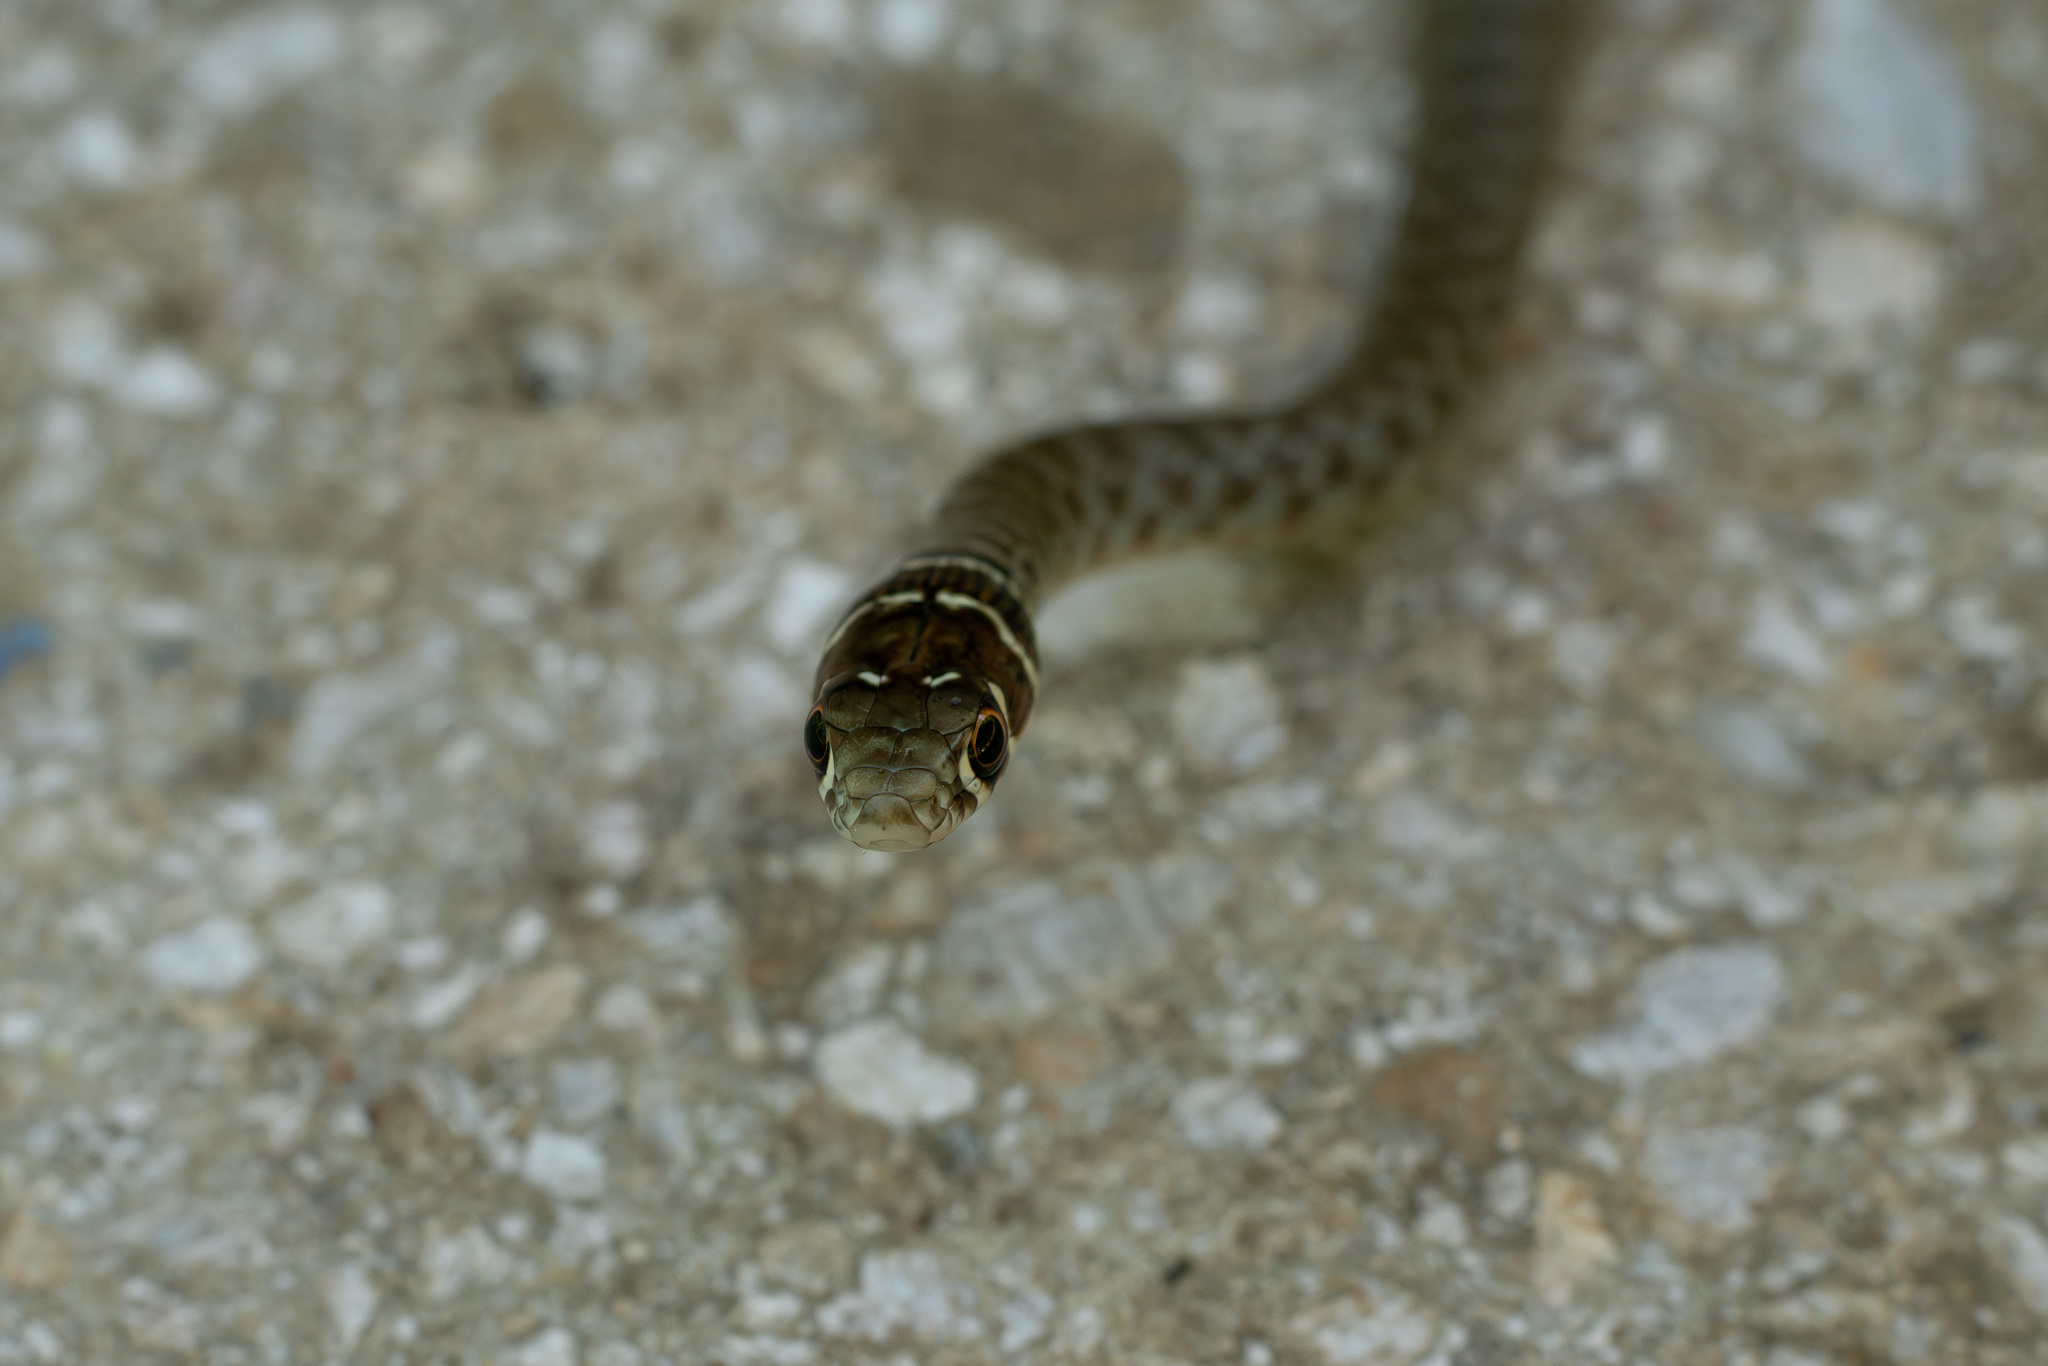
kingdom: Animalia
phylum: Chordata
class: Squamata
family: Colubridae
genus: Hierophis
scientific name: Hierophis viridiflavus
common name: Green whip snake
